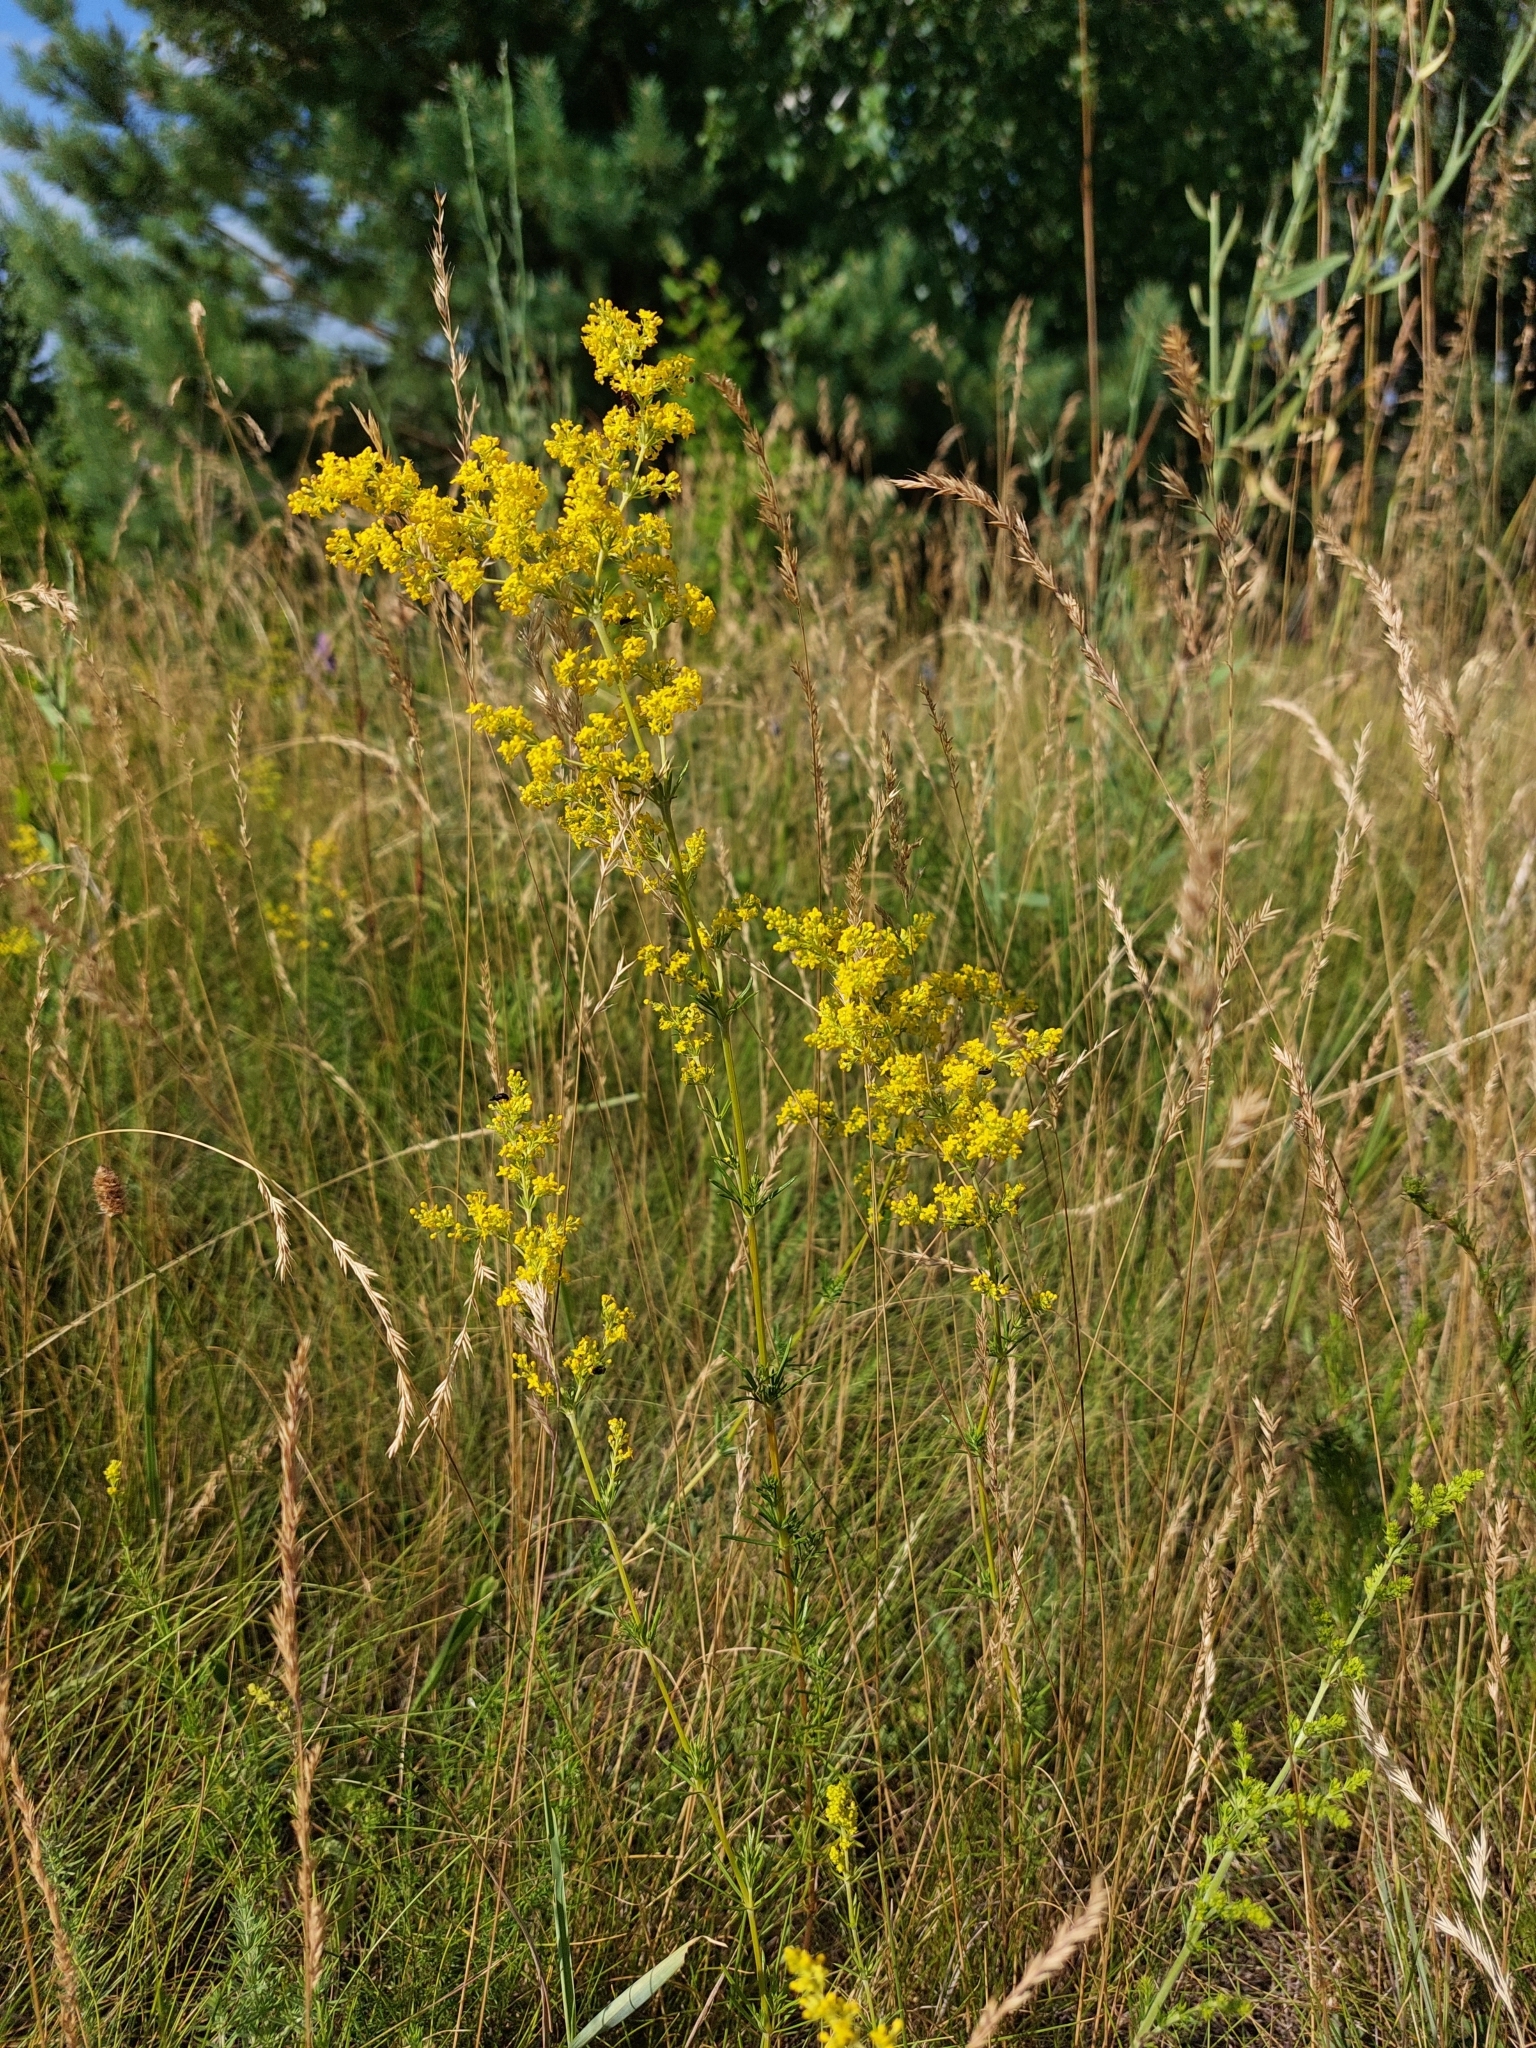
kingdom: Plantae
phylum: Tracheophyta
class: Magnoliopsida
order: Gentianales
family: Rubiaceae
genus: Galium
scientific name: Galium verum
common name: Lady's bedstraw
